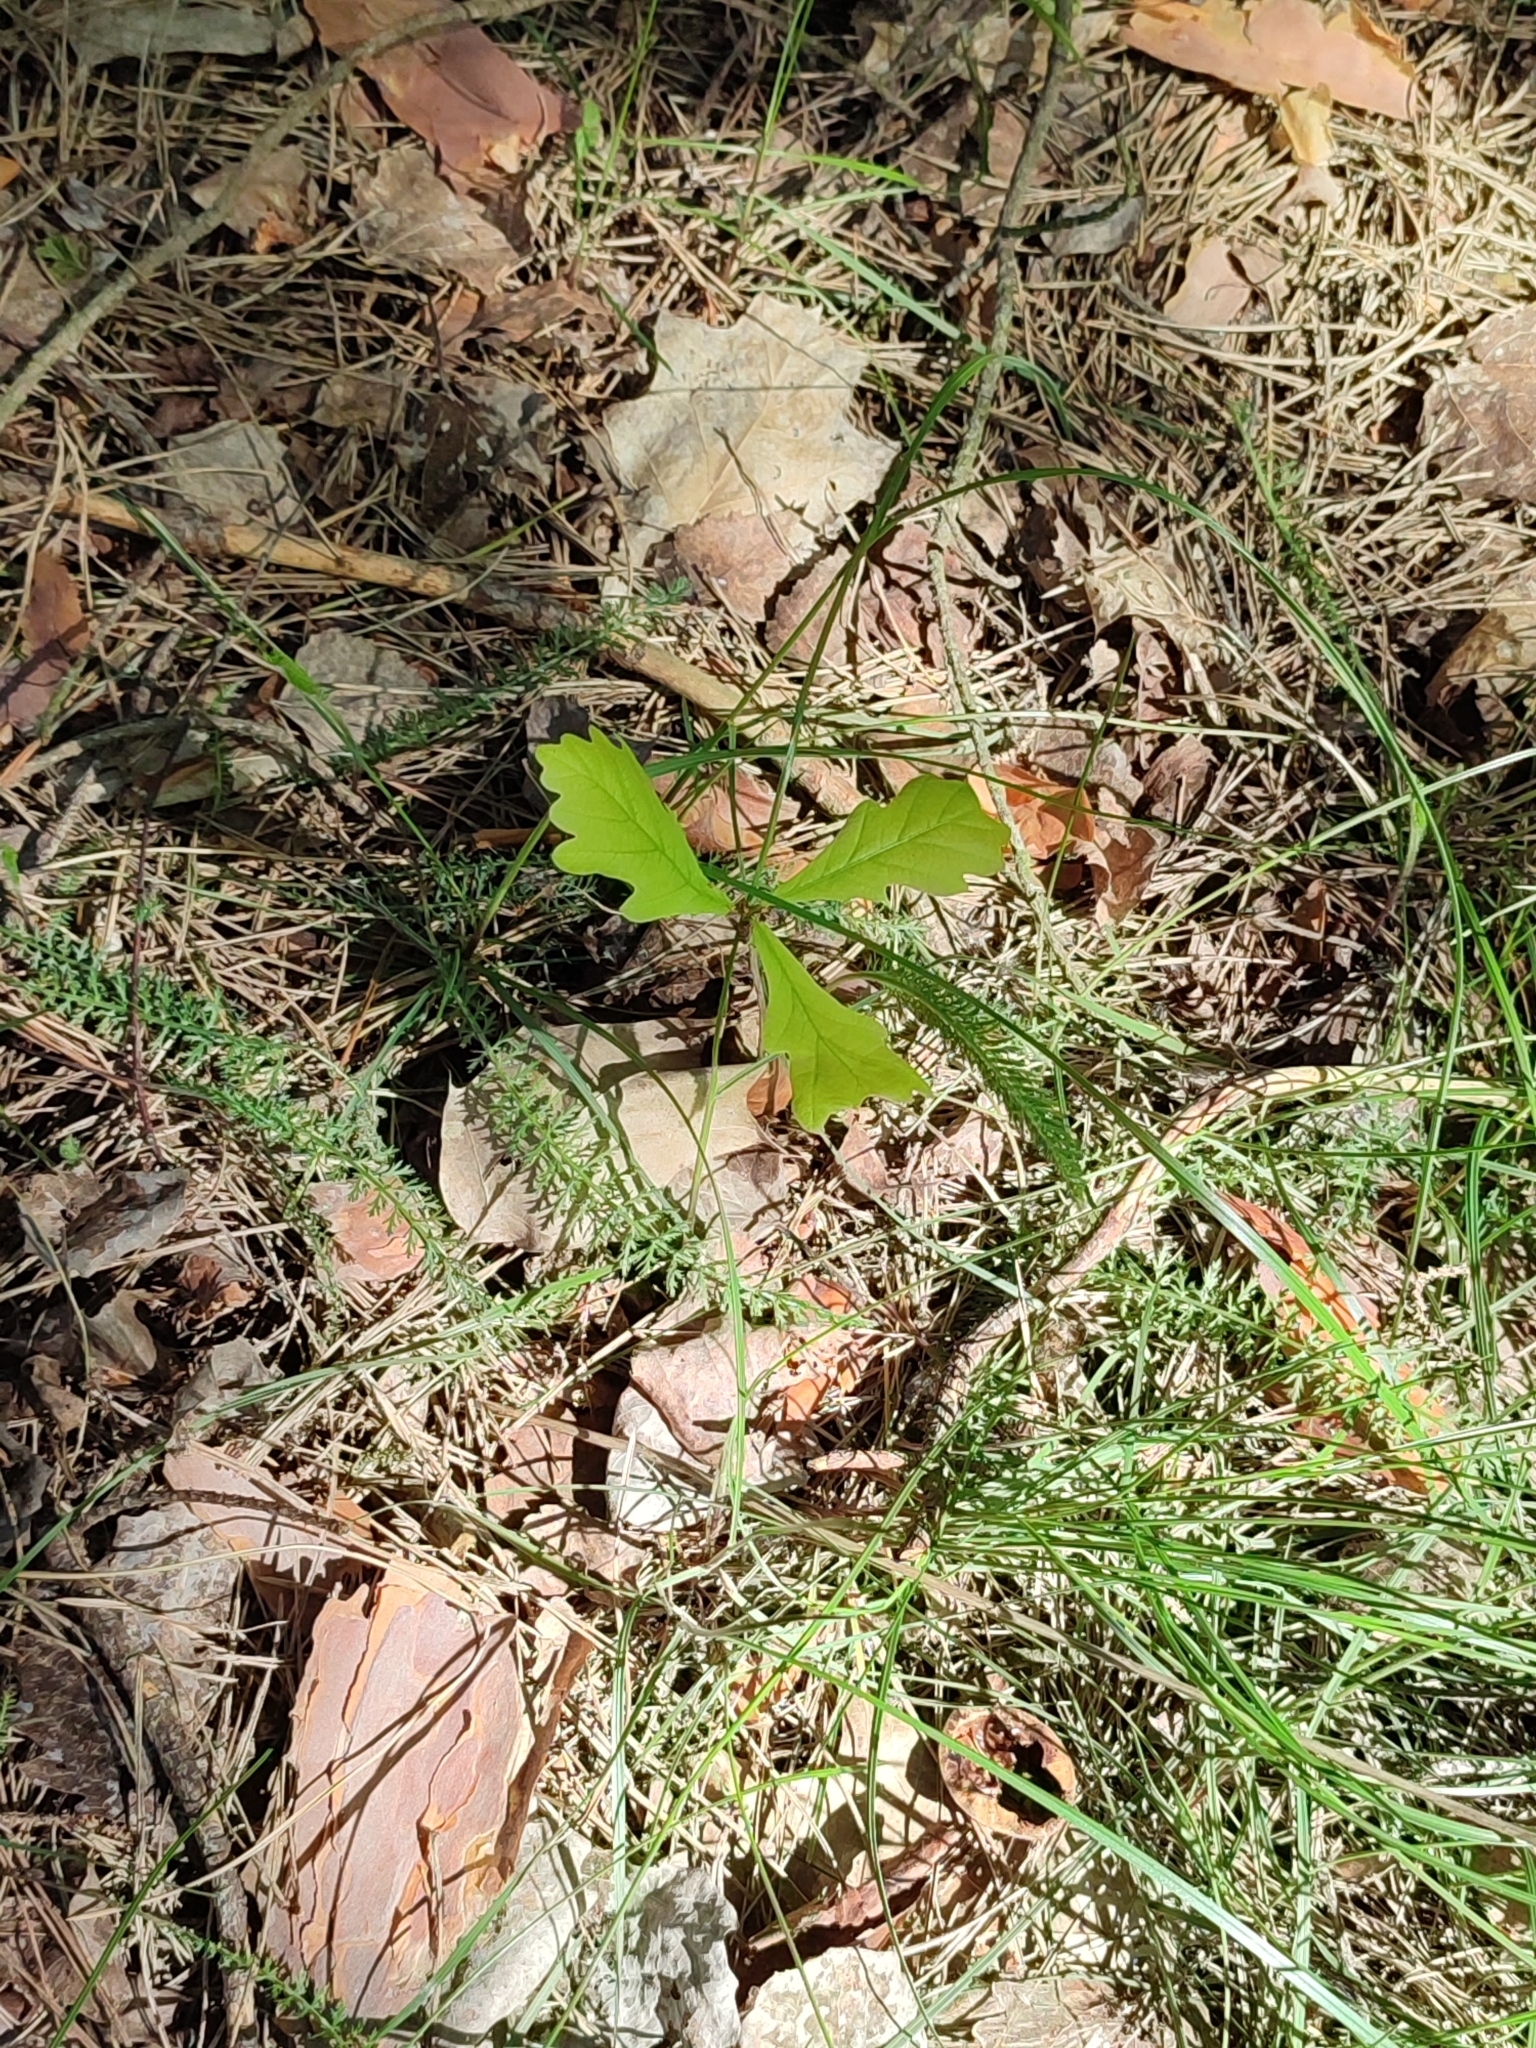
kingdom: Plantae
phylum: Tracheophyta
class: Magnoliopsida
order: Fagales
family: Fagaceae
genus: Quercus
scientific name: Quercus robur
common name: Pedunculate oak
